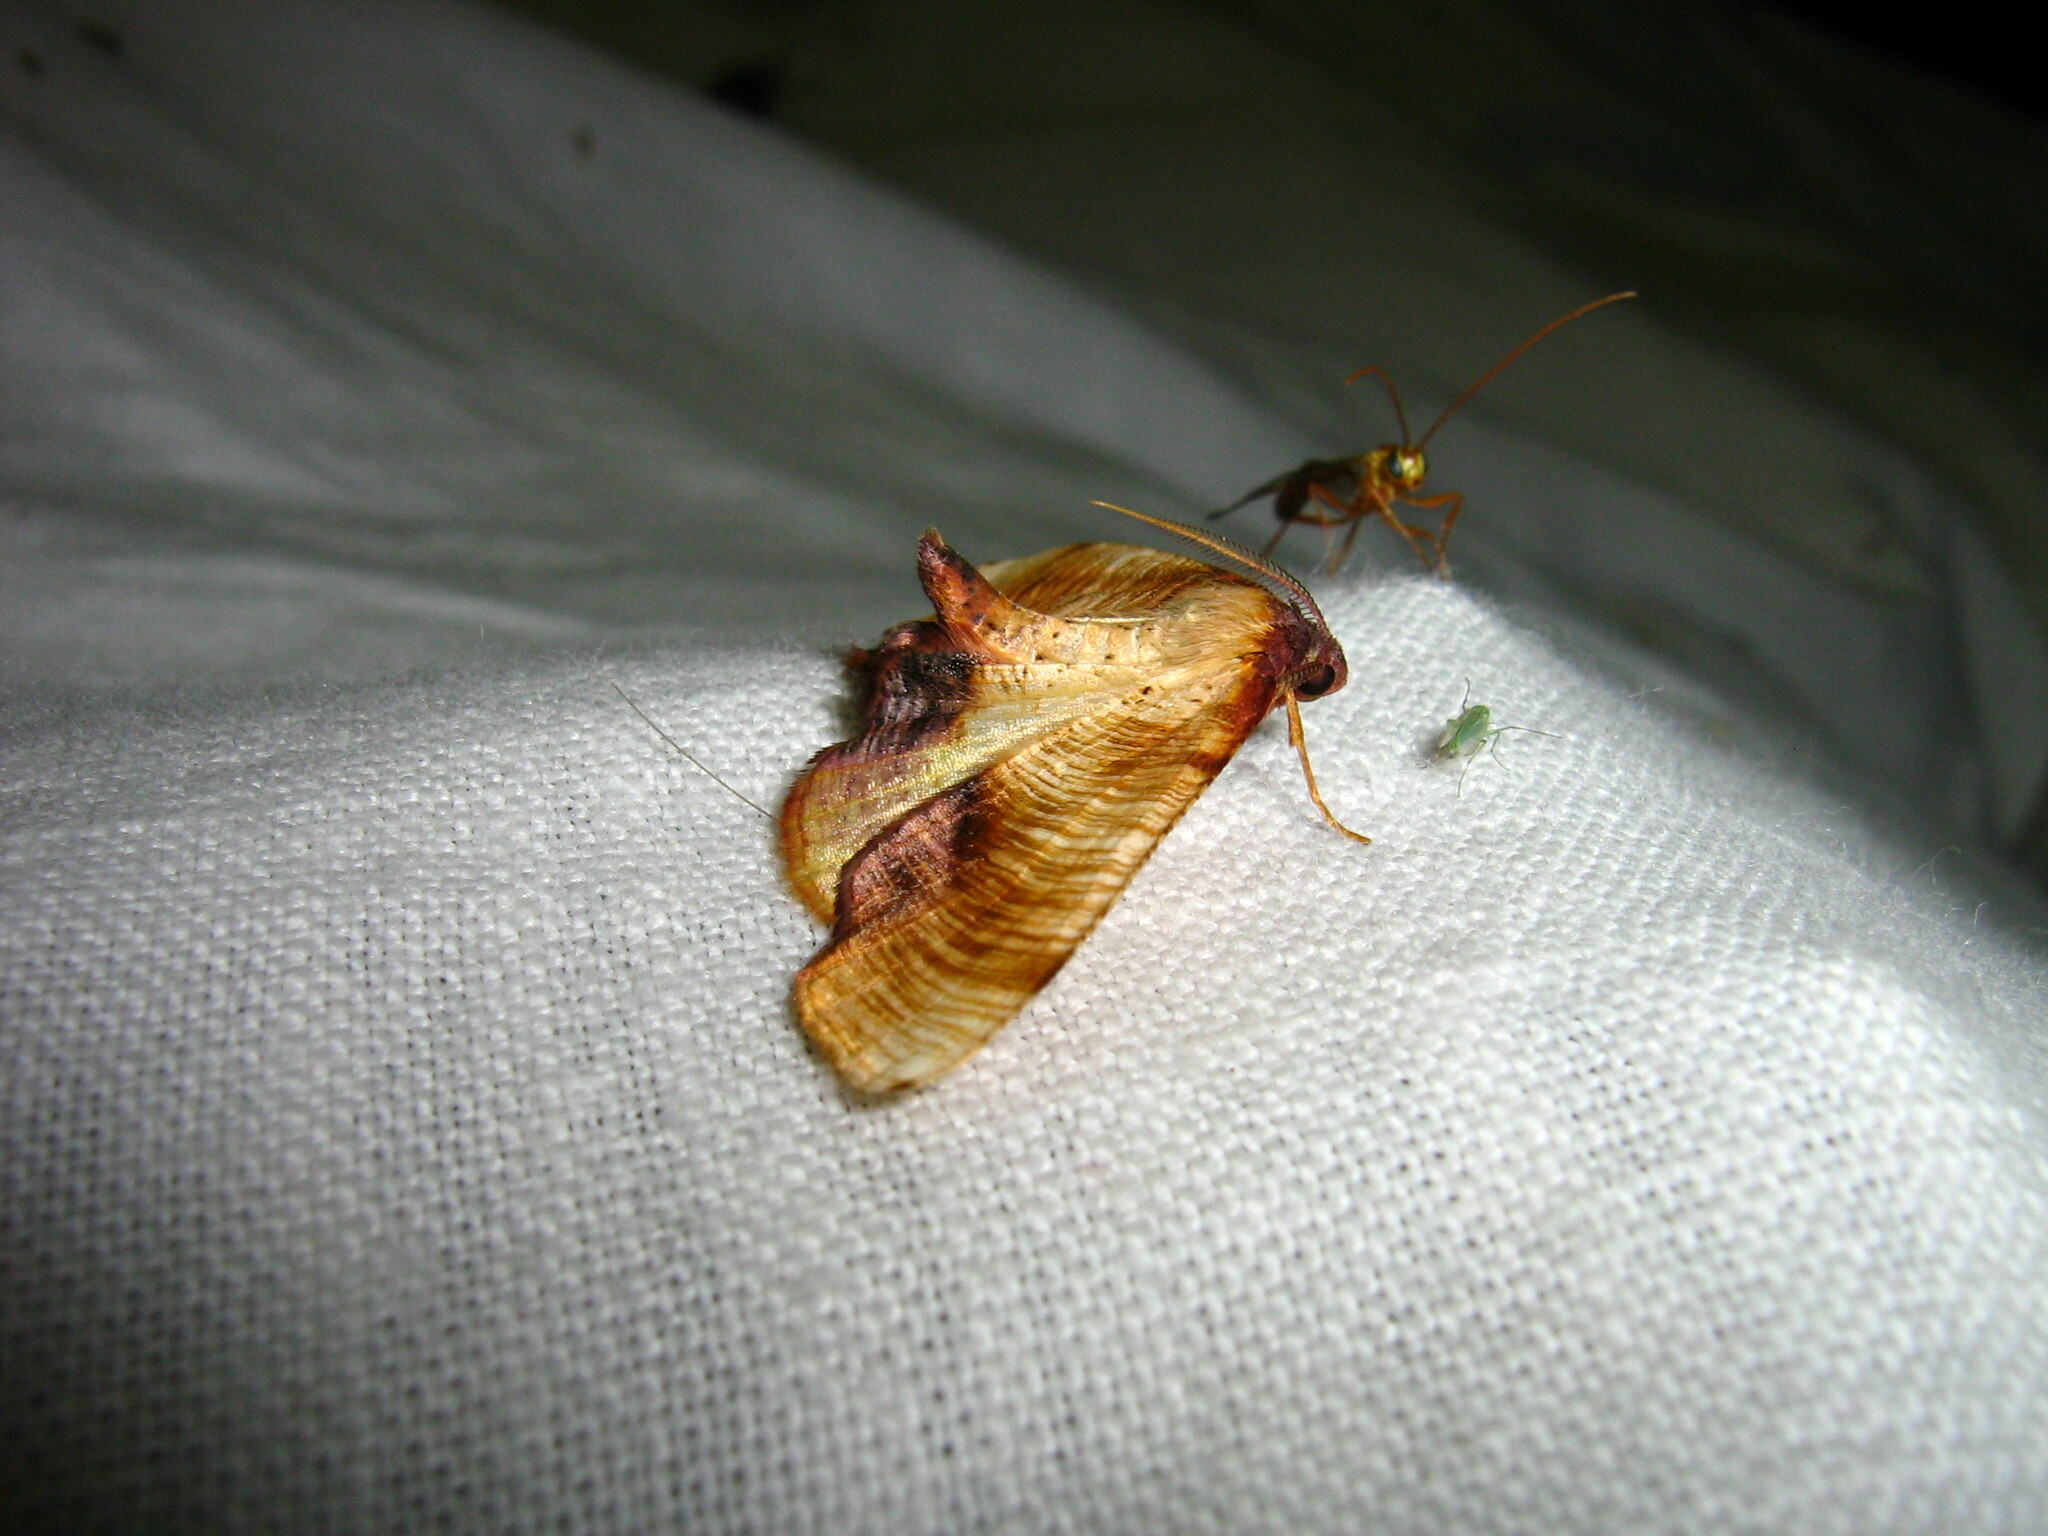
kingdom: Animalia
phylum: Arthropoda
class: Insecta
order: Lepidoptera
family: Geometridae
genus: Plagodis
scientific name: Plagodis dolabraria
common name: Scorched wing
